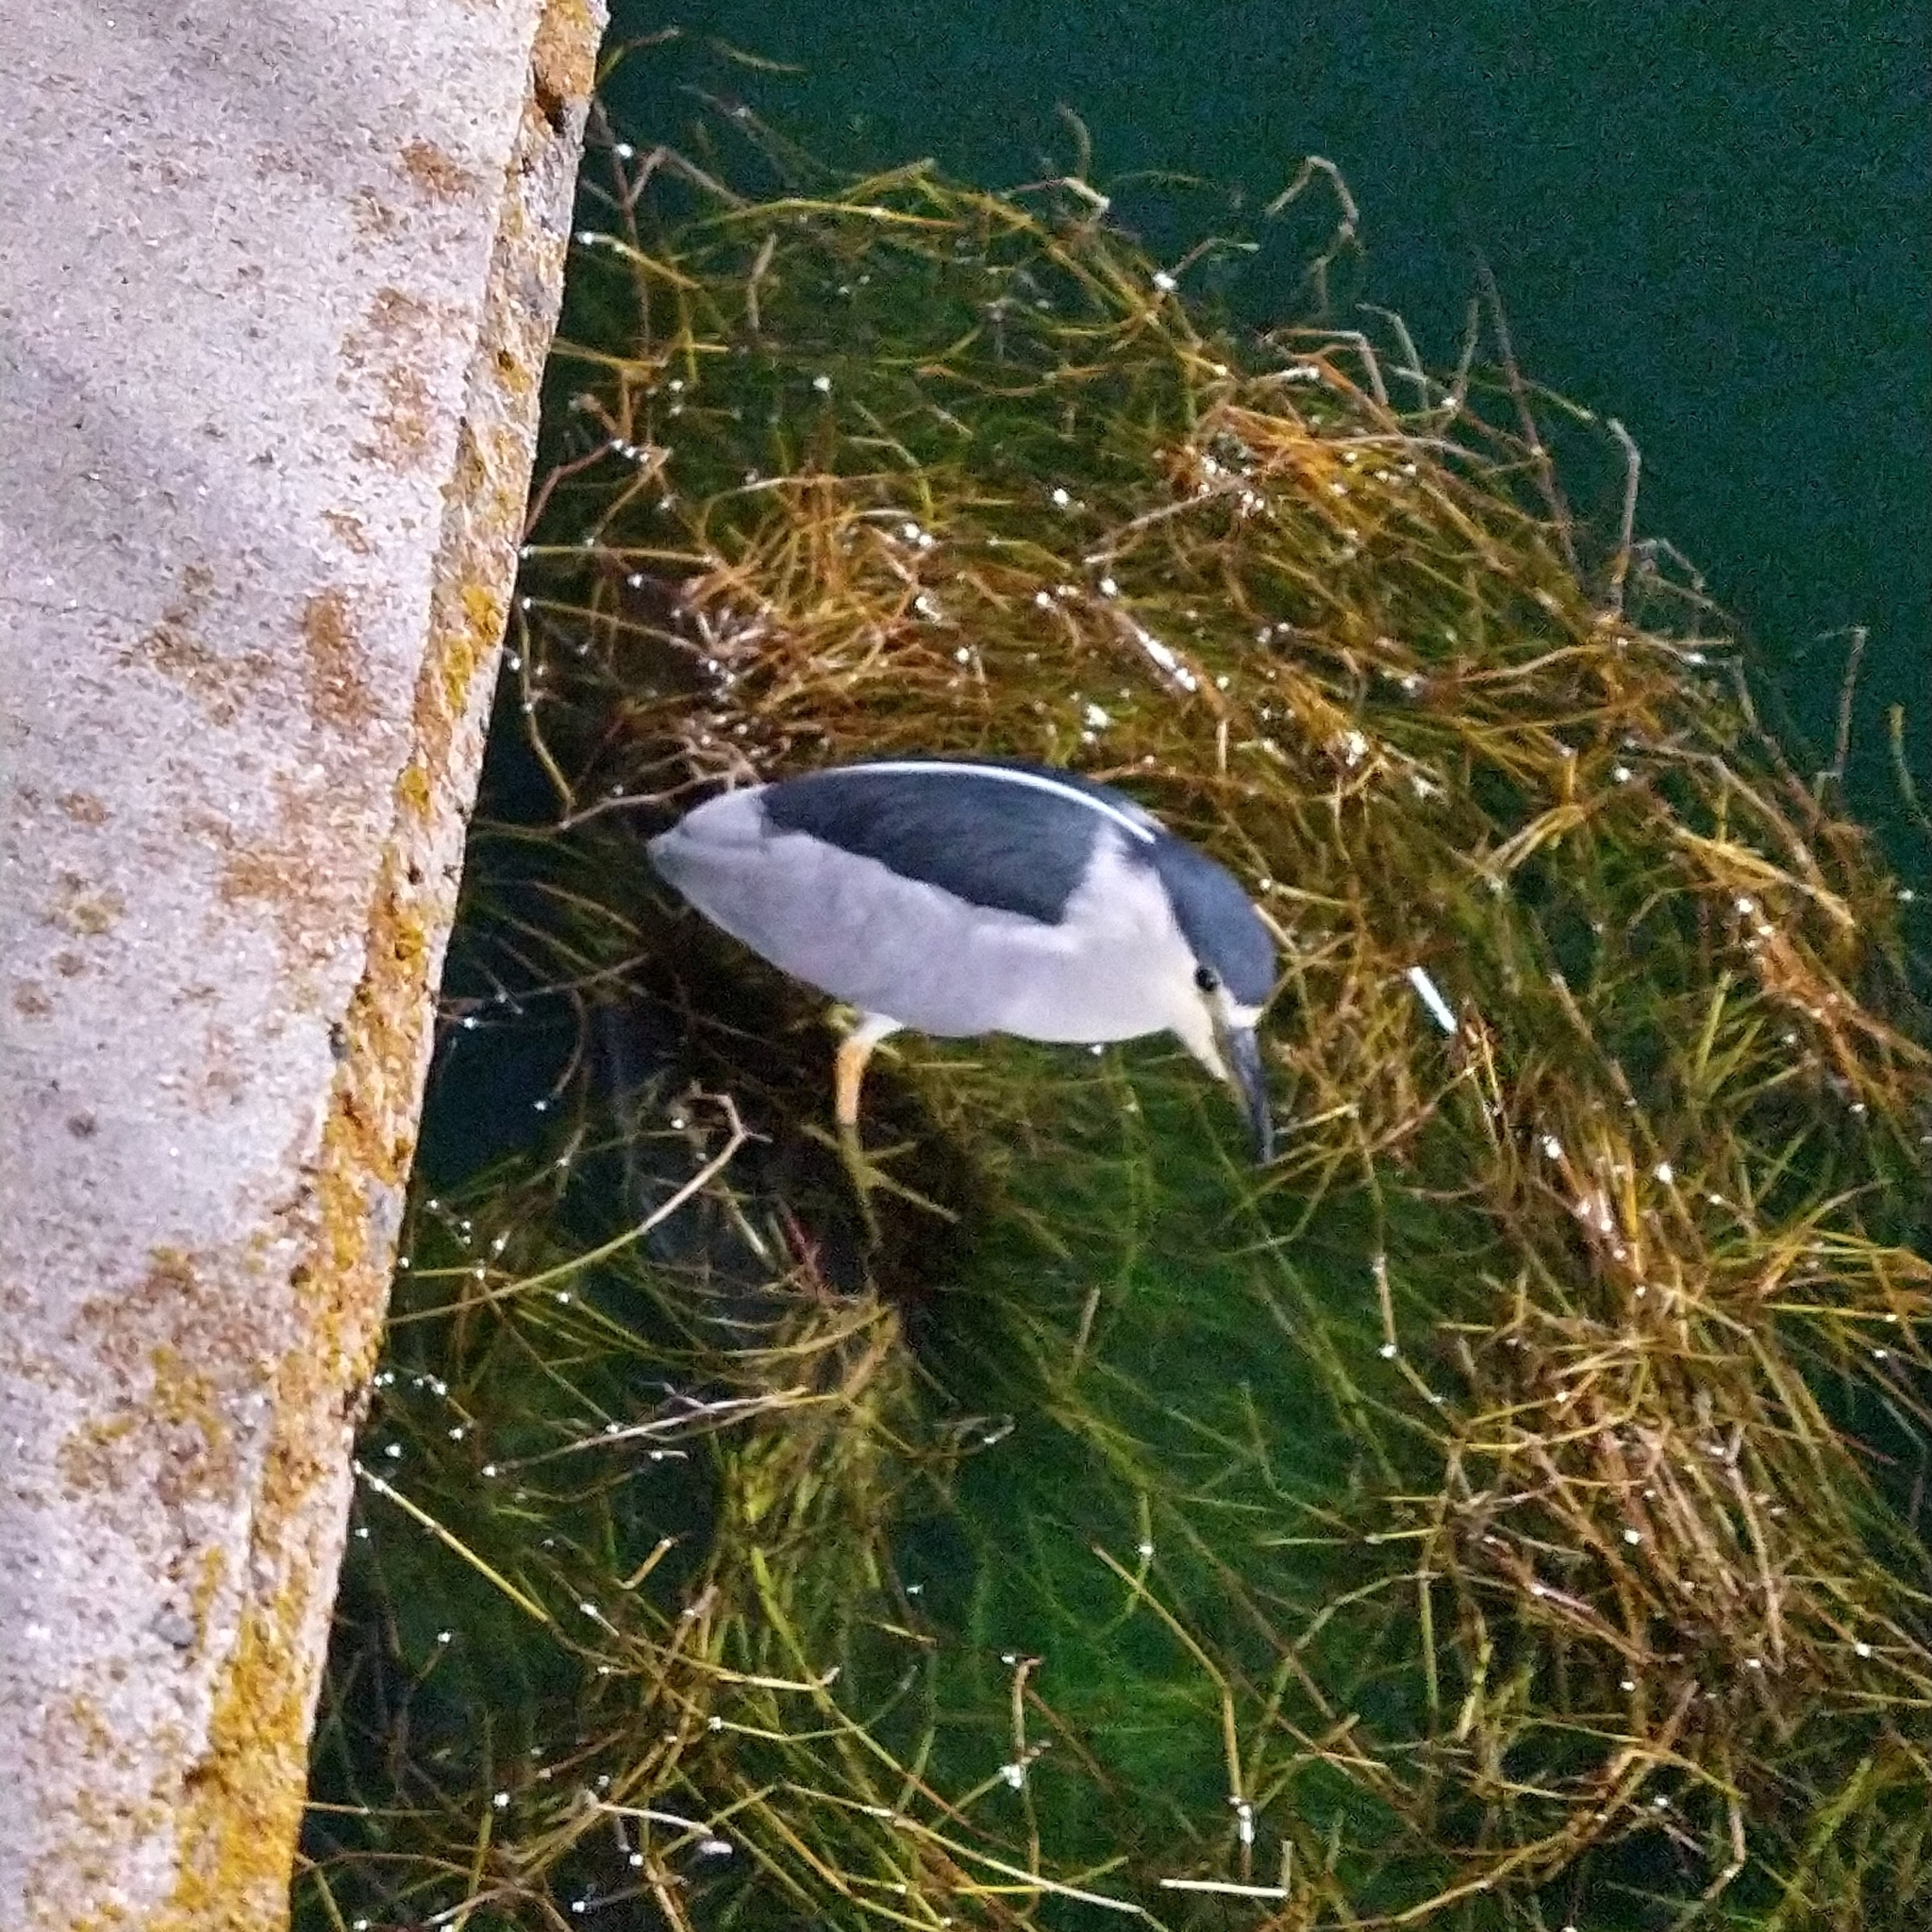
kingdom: Animalia
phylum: Chordata
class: Aves
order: Pelecaniformes
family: Ardeidae
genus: Nycticorax
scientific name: Nycticorax nycticorax
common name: Black-crowned night heron
